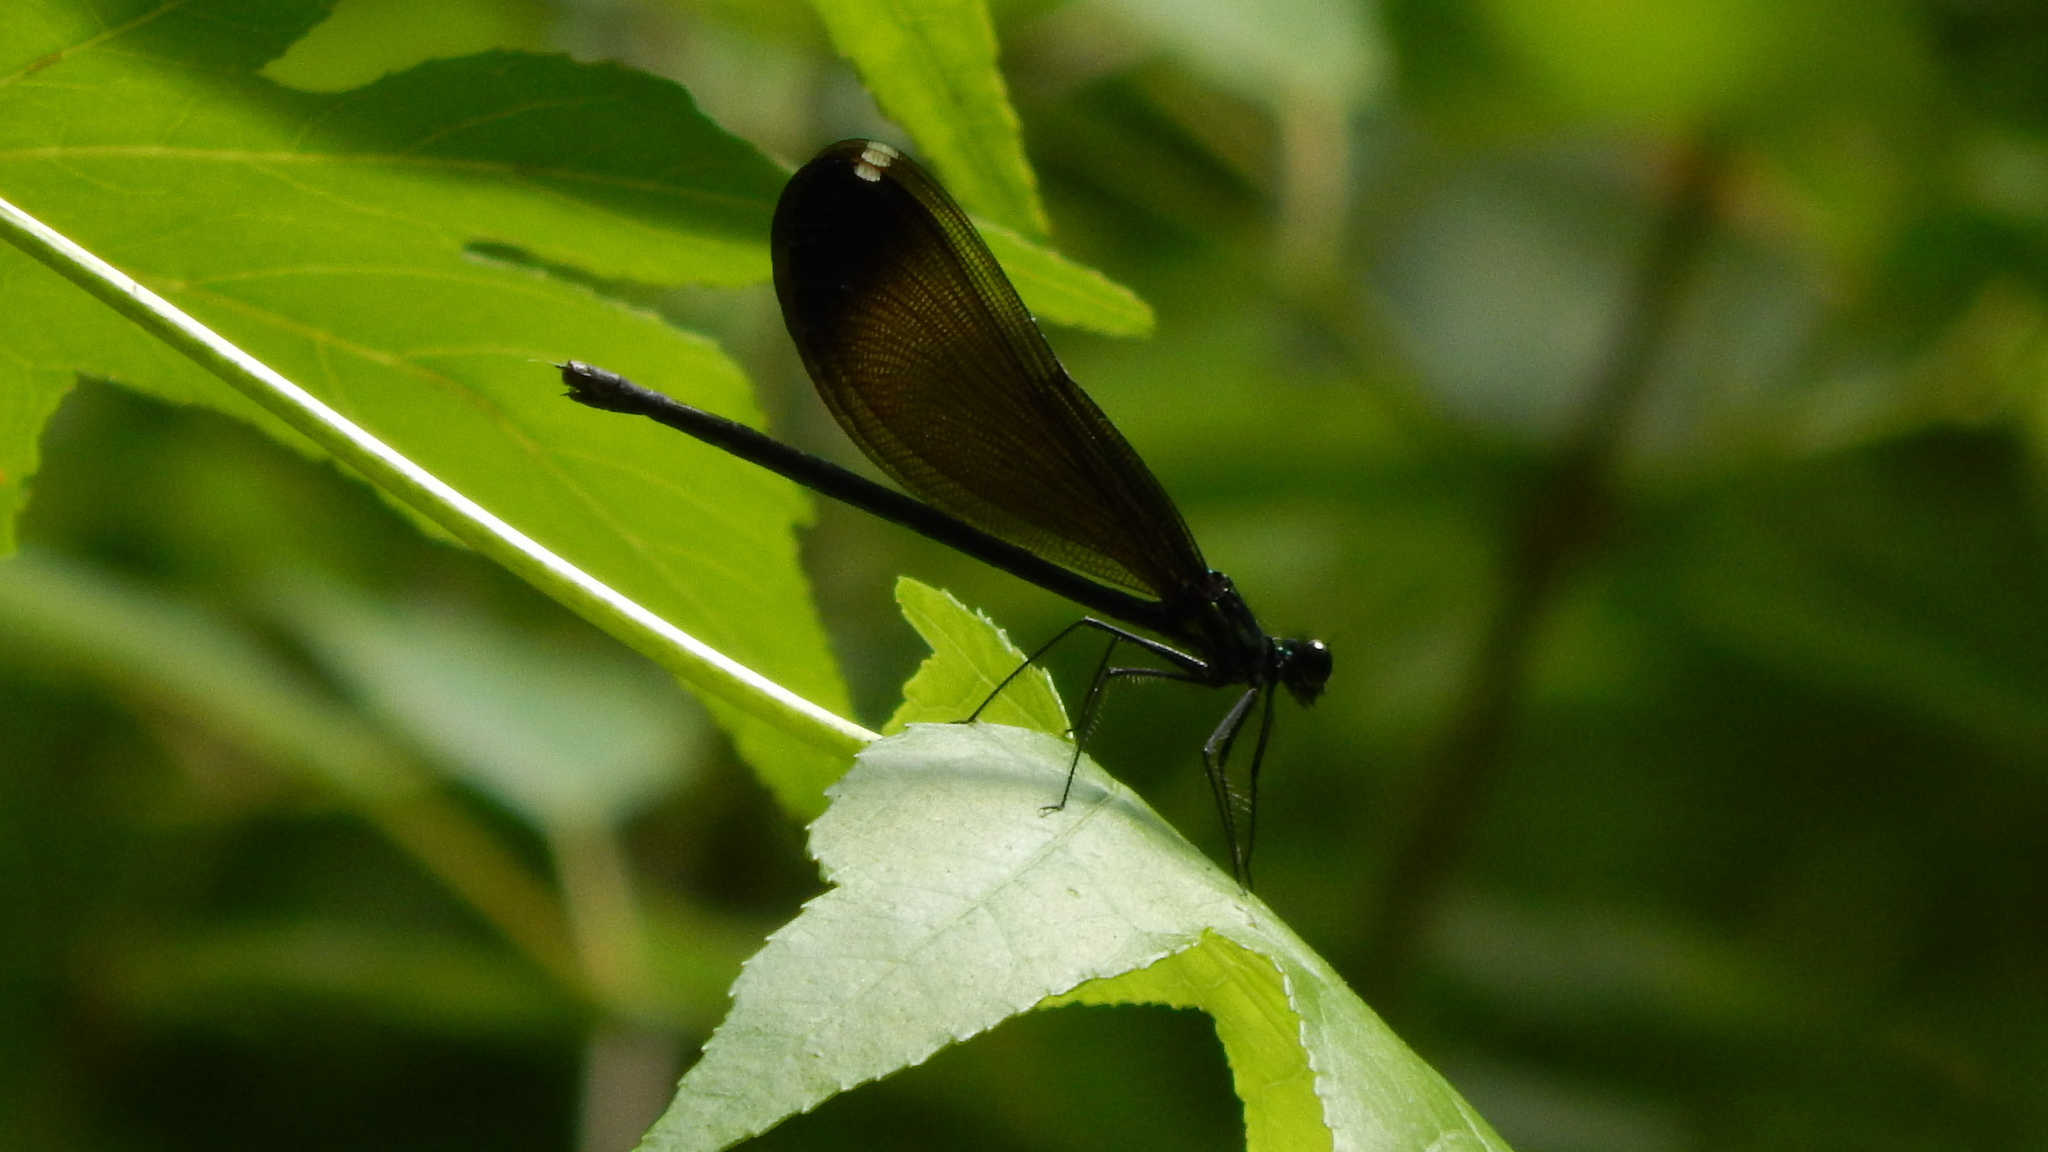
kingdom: Animalia
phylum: Arthropoda
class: Insecta
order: Odonata
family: Calopterygidae
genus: Calopteryx
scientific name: Calopteryx maculata
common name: Ebony jewelwing
